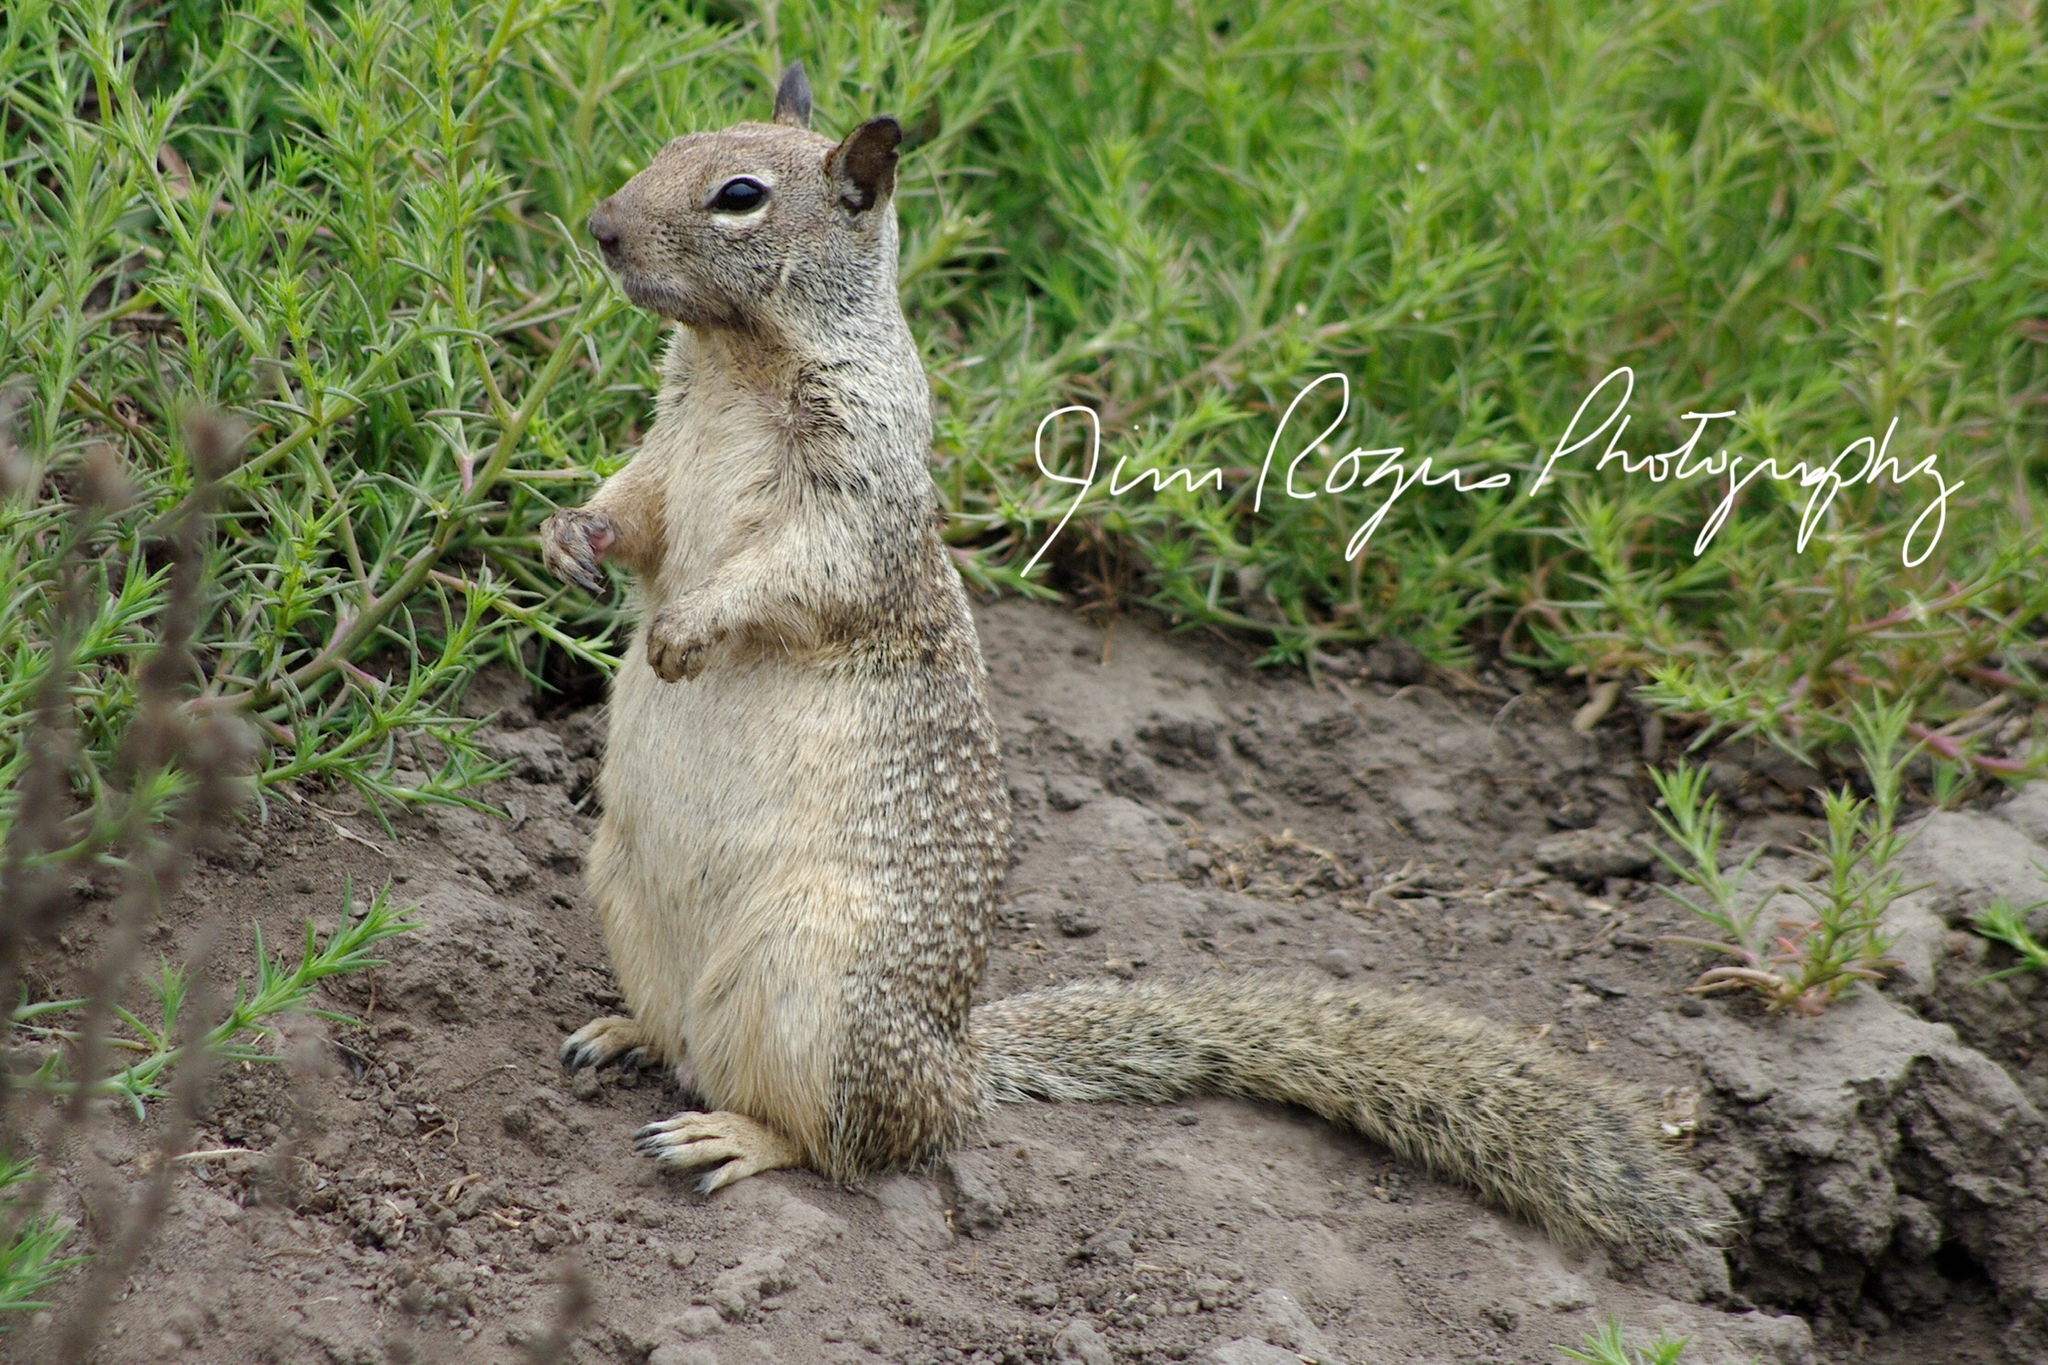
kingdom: Animalia
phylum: Chordata
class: Mammalia
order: Rodentia
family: Sciuridae
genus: Otospermophilus
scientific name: Otospermophilus beecheyi
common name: California ground squirrel
